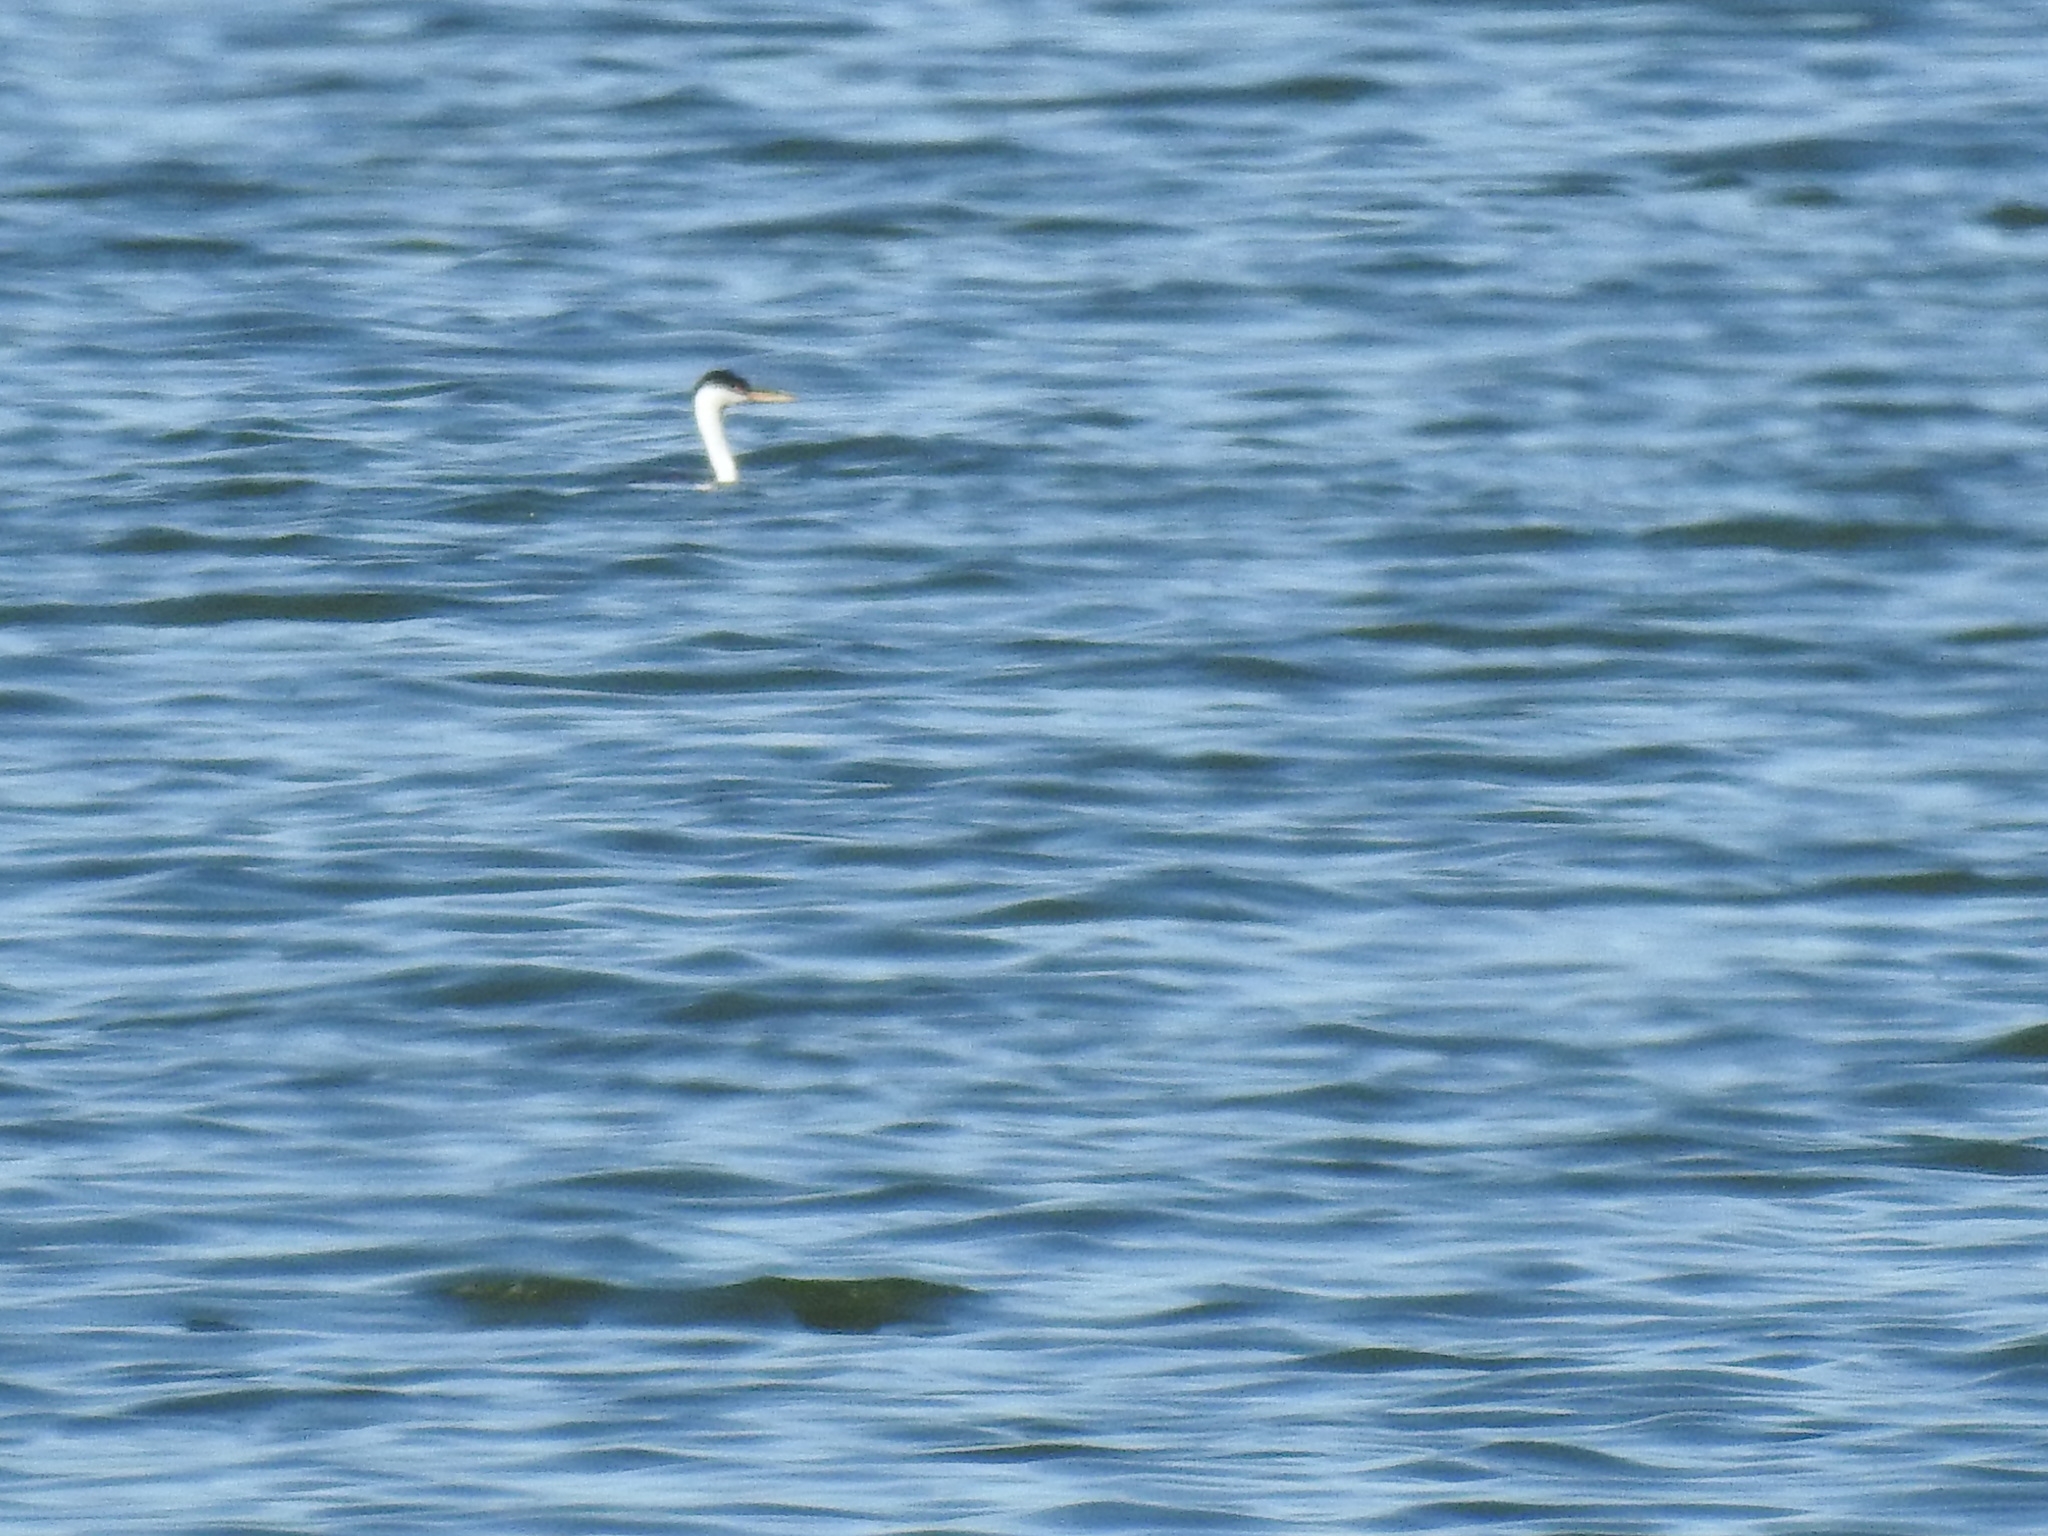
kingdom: Animalia
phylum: Chordata
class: Aves
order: Podicipediformes
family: Podicipedidae
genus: Aechmophorus
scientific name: Aechmophorus occidentalis
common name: Western grebe
